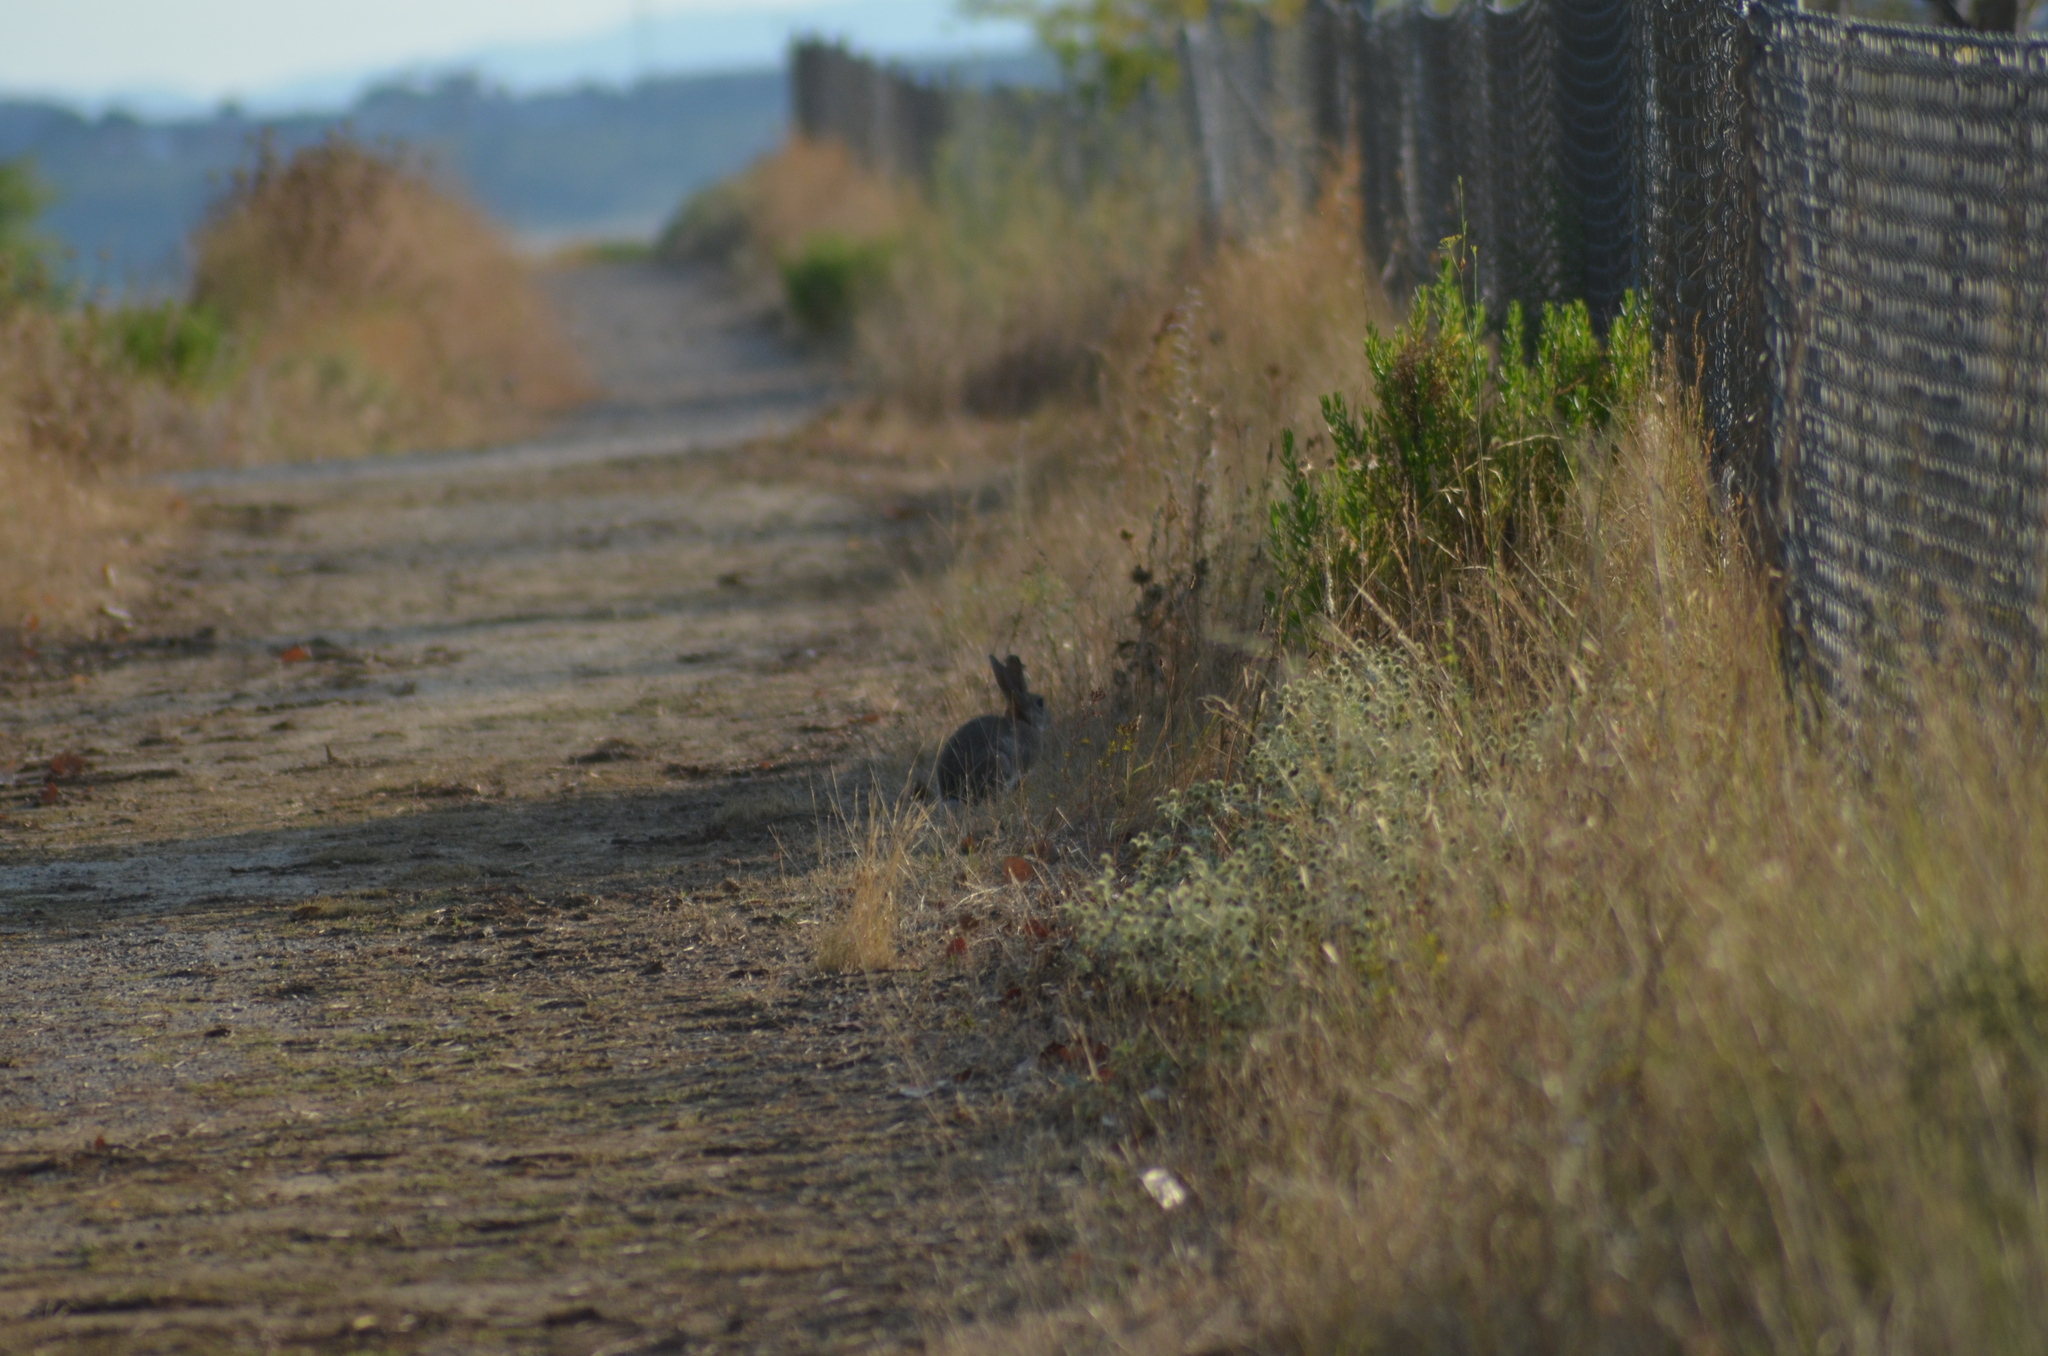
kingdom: Animalia
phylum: Chordata
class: Mammalia
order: Lagomorpha
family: Leporidae
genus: Oryctolagus
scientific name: Oryctolagus cuniculus
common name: European rabbit
